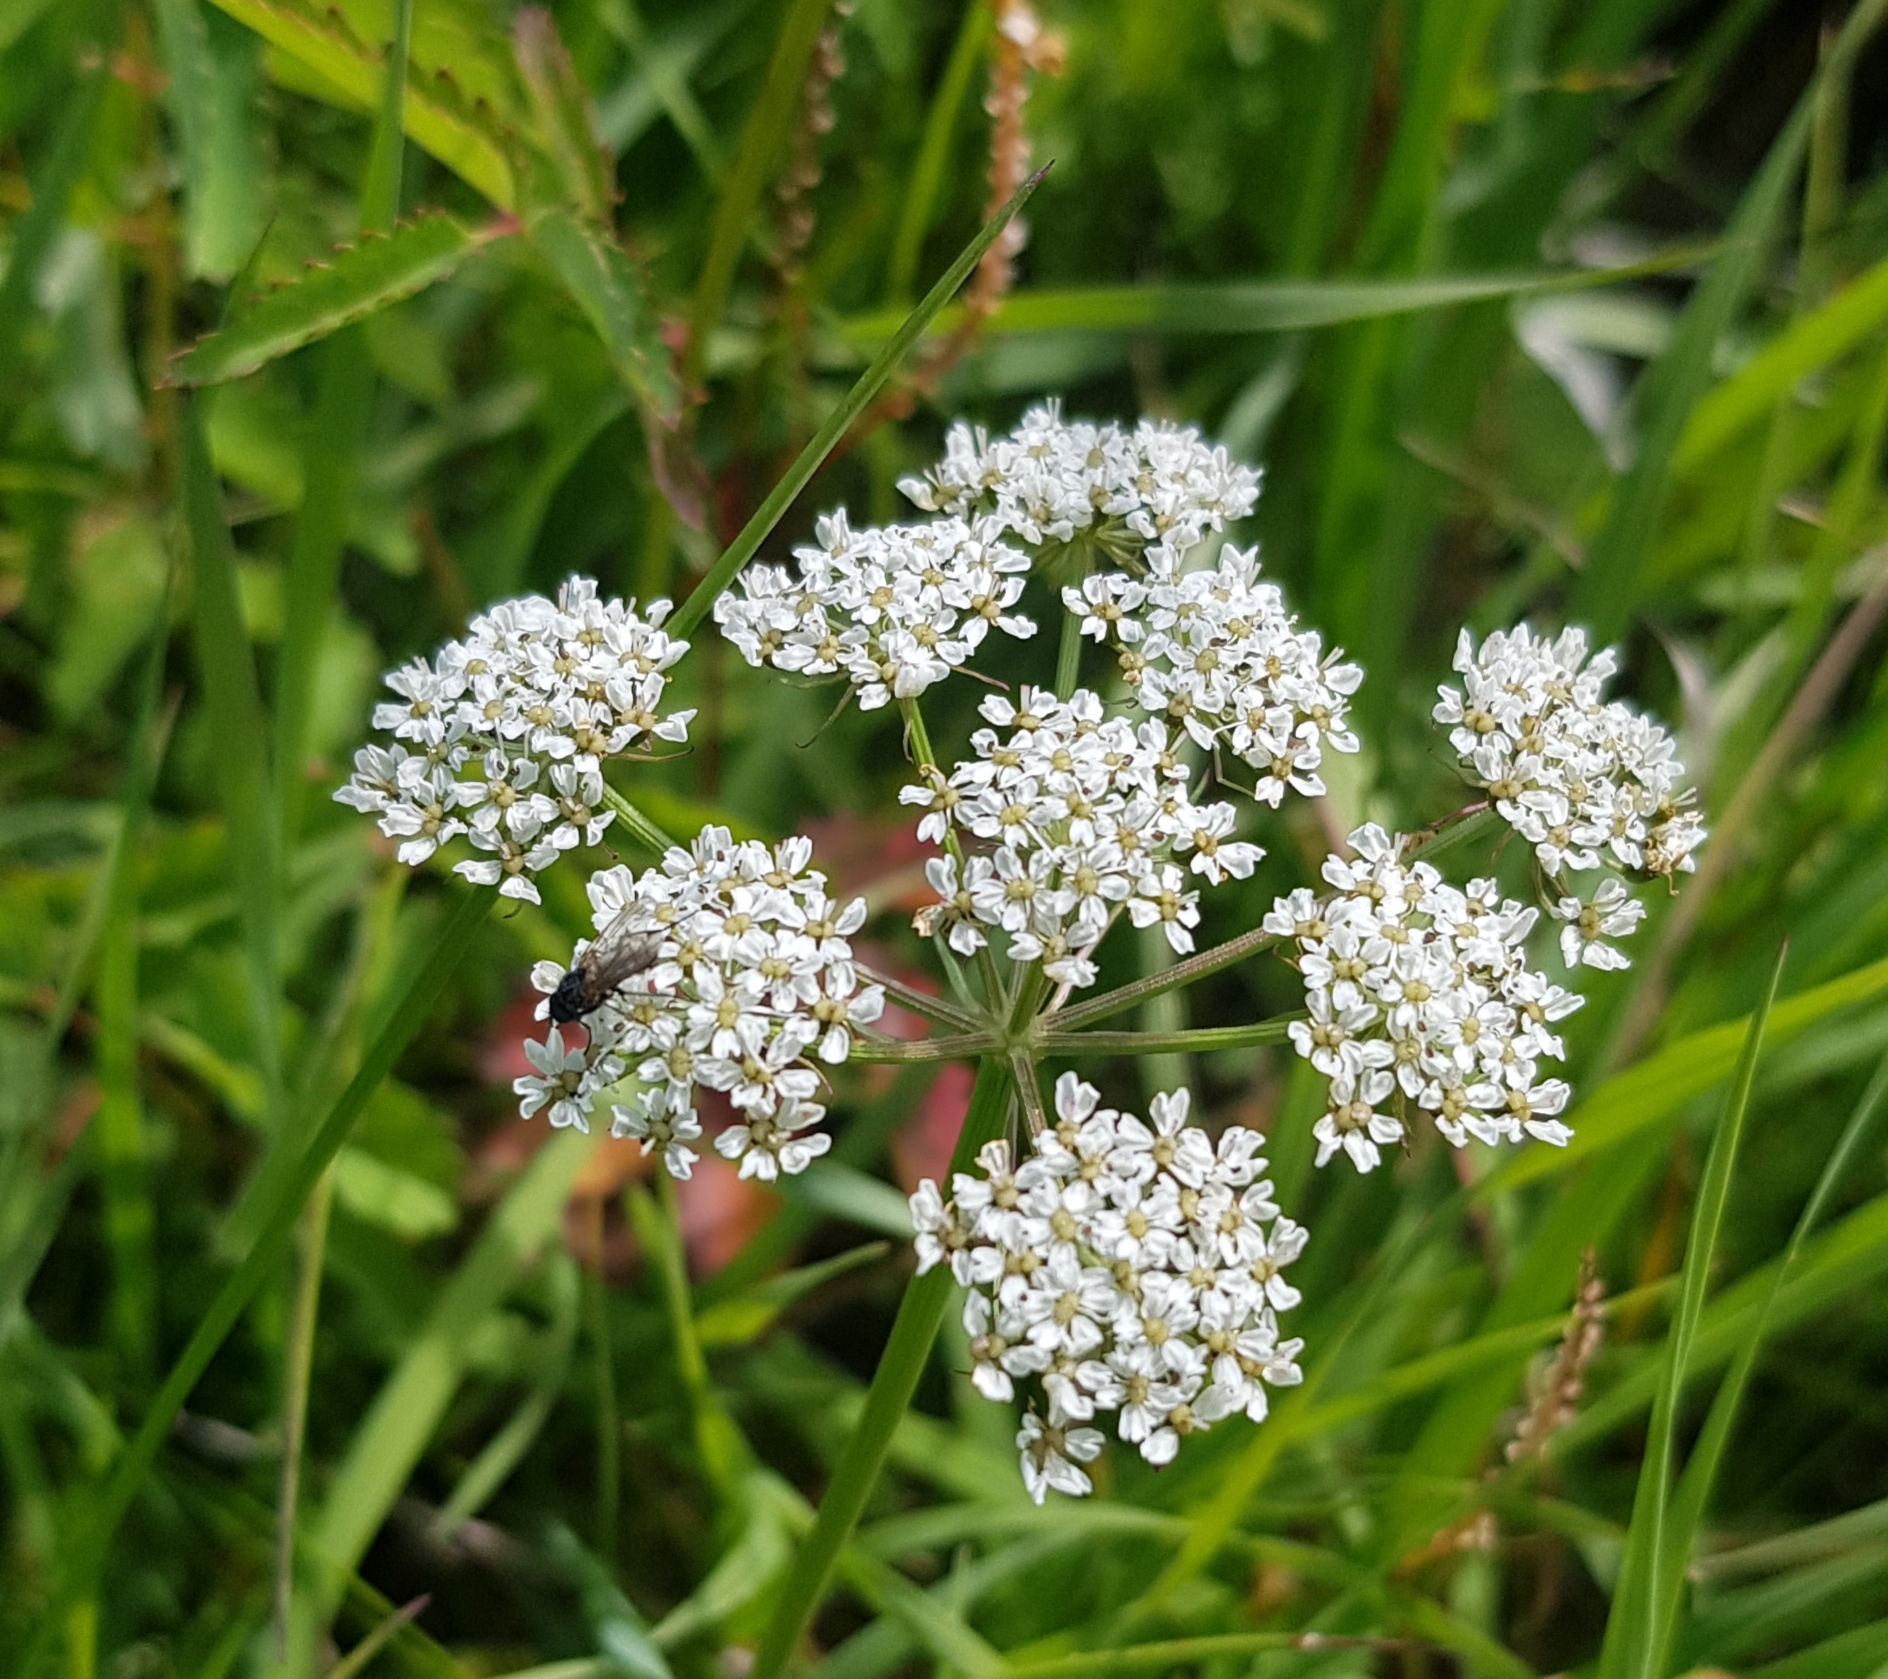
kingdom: Plantae
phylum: Tracheophyta
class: Magnoliopsida
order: Apiales
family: Apiaceae
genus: Aegopodium
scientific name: Aegopodium alpestre
